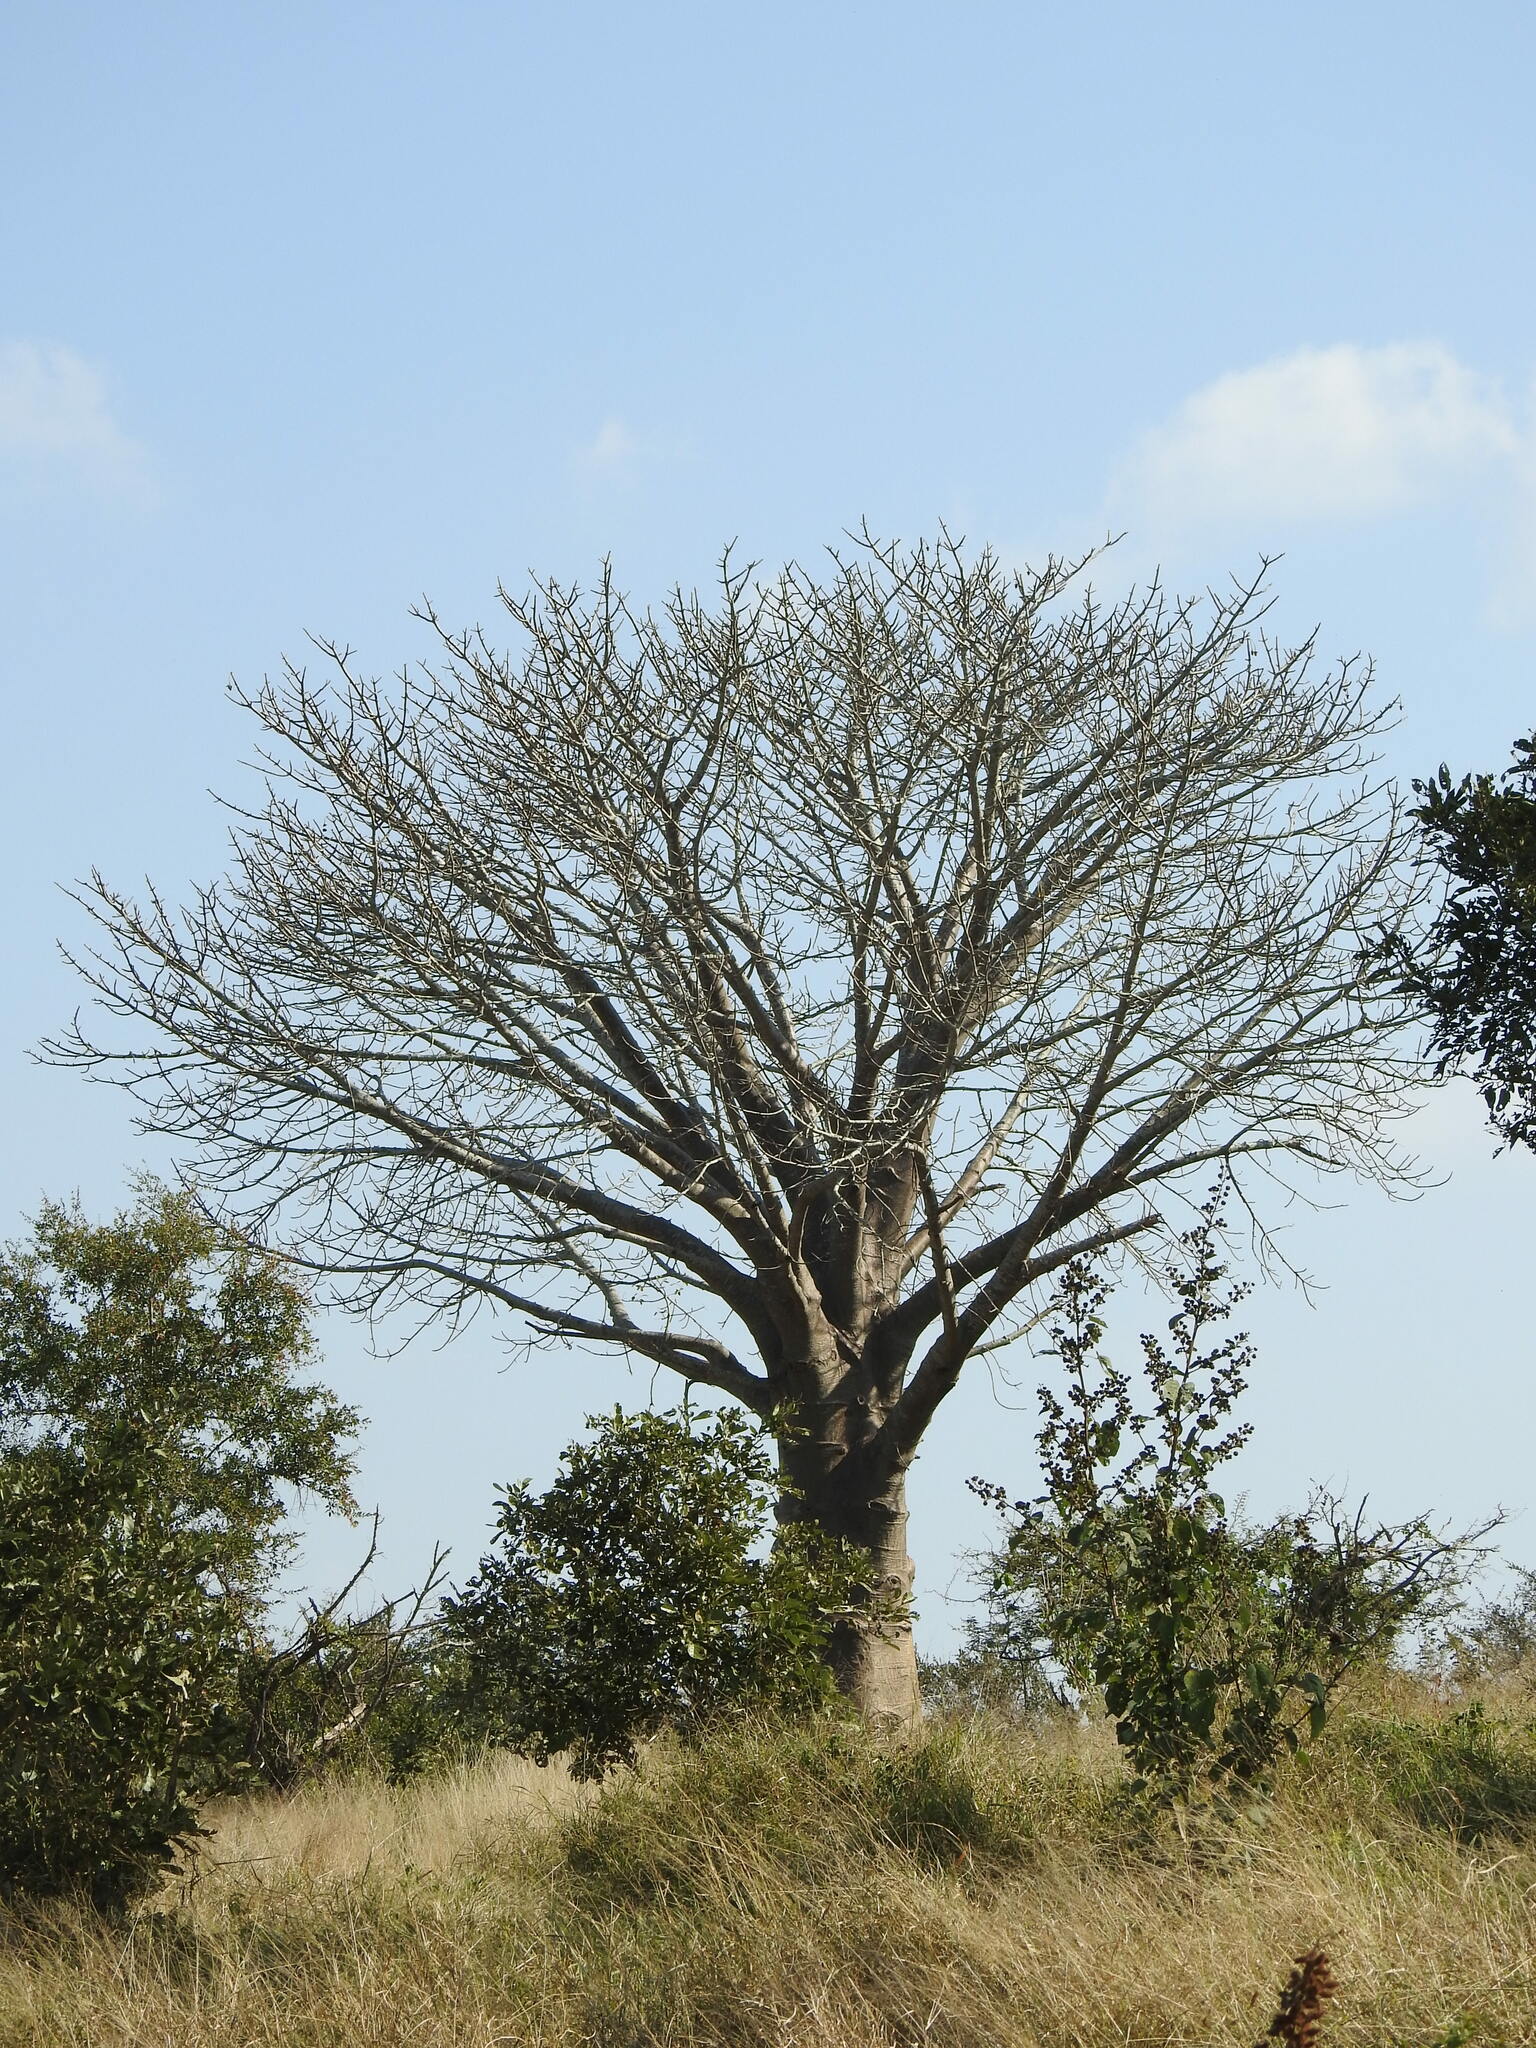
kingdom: Plantae
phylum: Tracheophyta
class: Magnoliopsida
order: Malvales
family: Malvaceae
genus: Adansonia
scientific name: Adansonia digitata
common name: Dead-rat-tree
